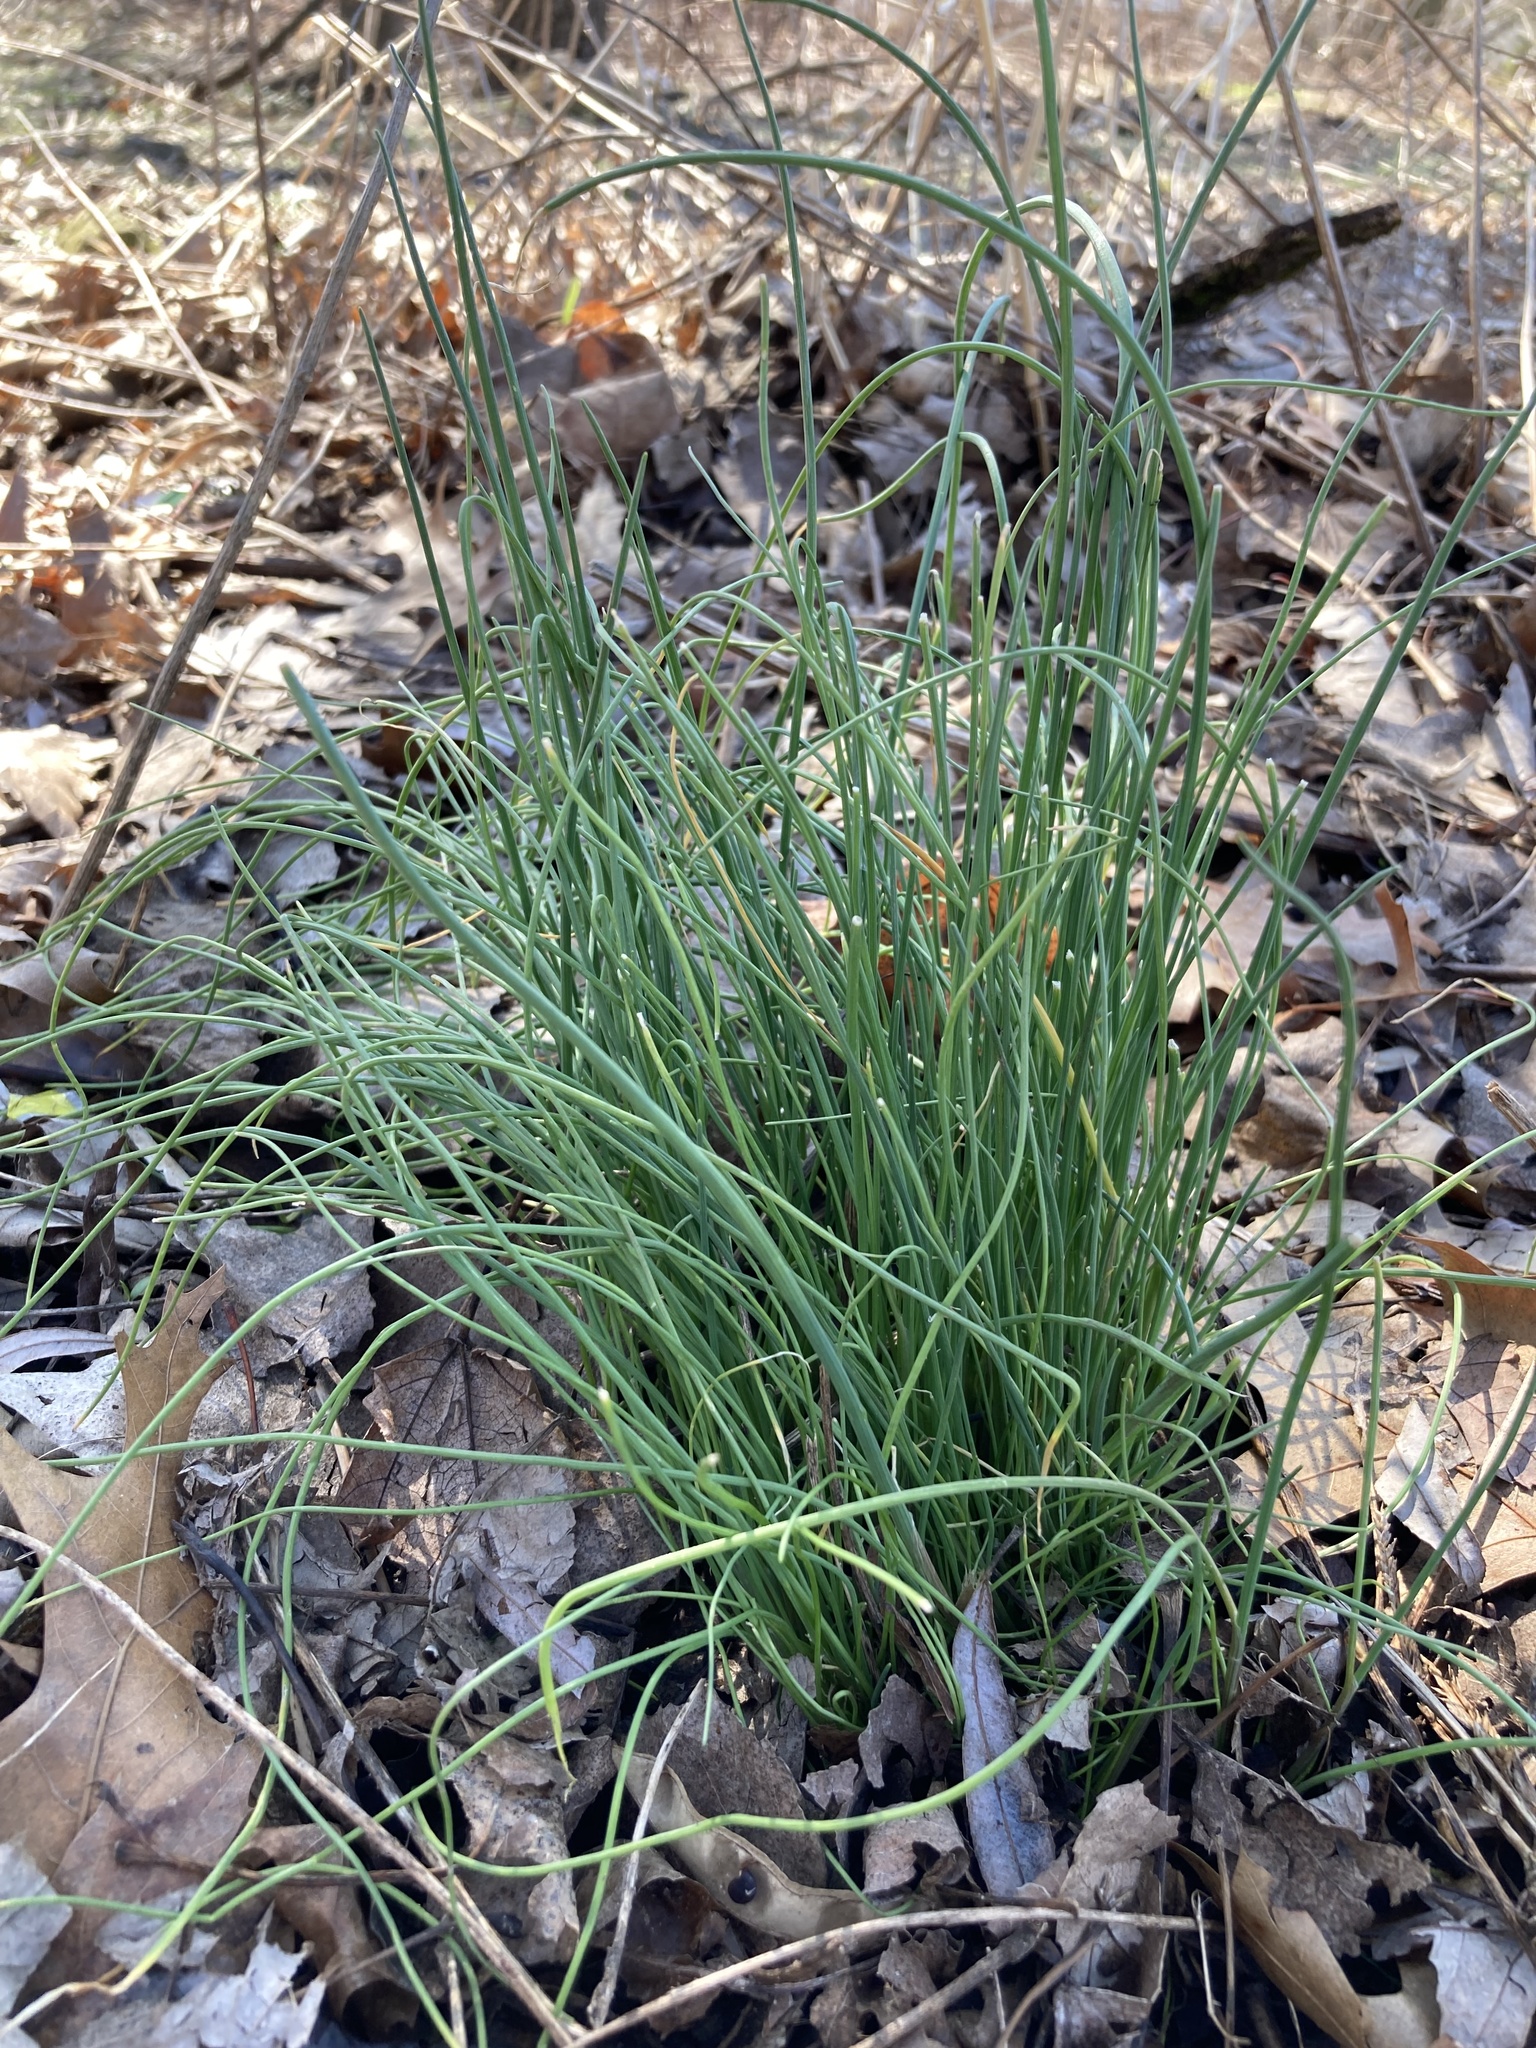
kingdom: Plantae
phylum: Tracheophyta
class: Liliopsida
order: Asparagales
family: Amaryllidaceae
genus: Allium
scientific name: Allium vineale
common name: Crow garlic
